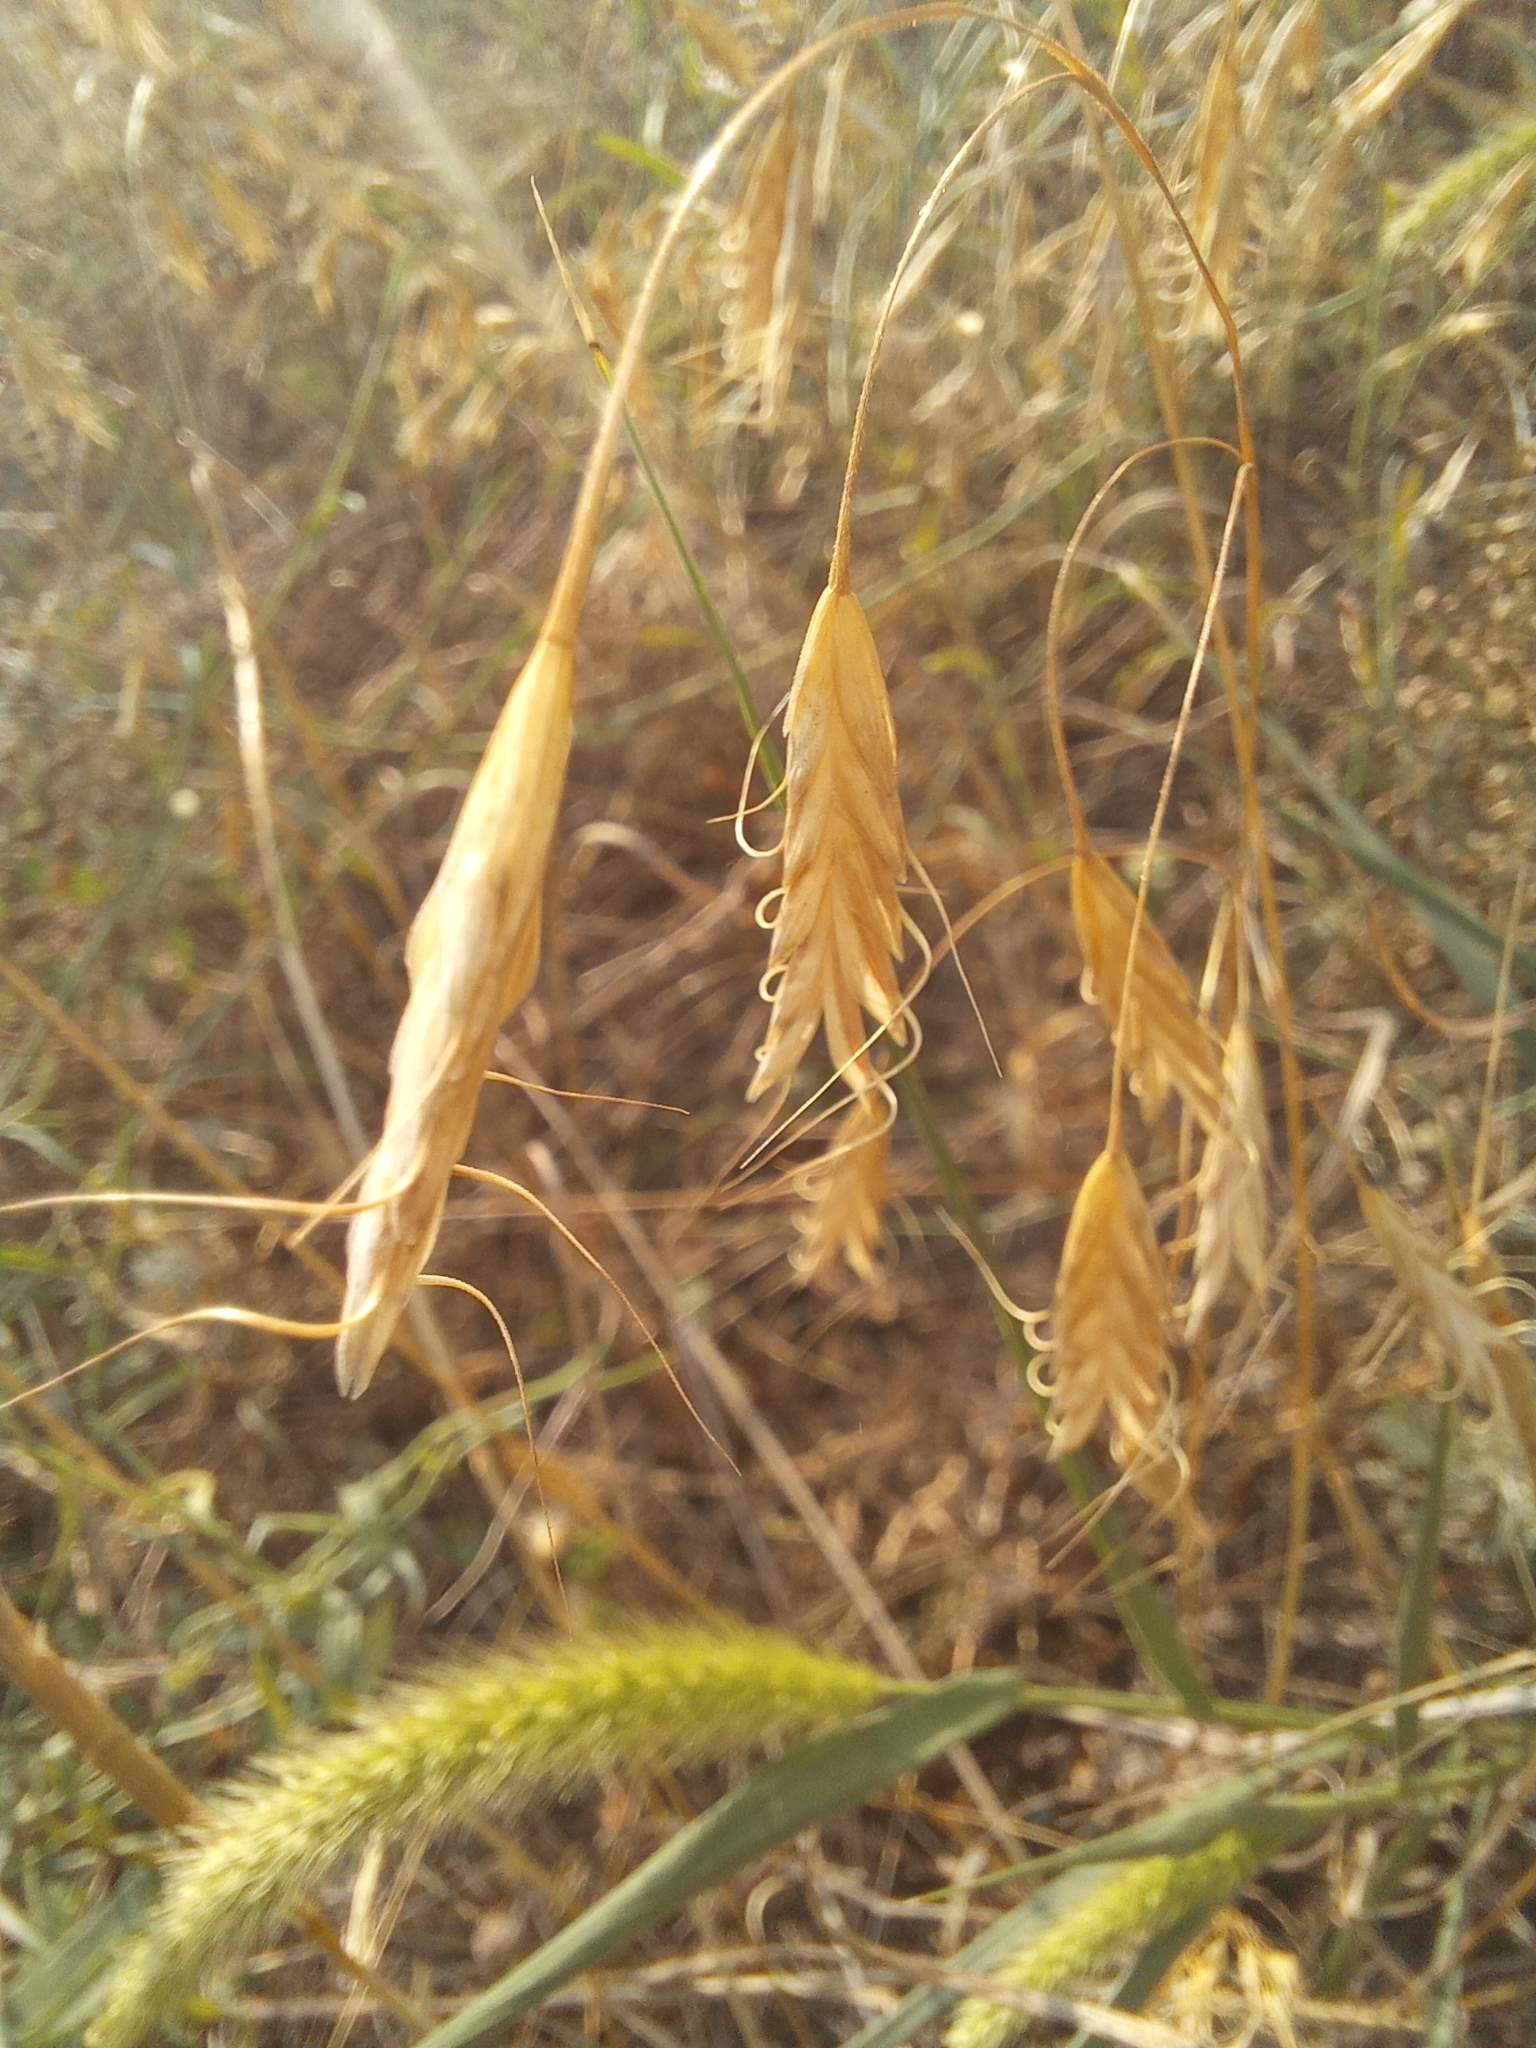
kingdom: Plantae
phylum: Tracheophyta
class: Liliopsida
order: Poales
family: Poaceae
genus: Bromus
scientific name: Bromus japonicus
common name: Japanese brome
